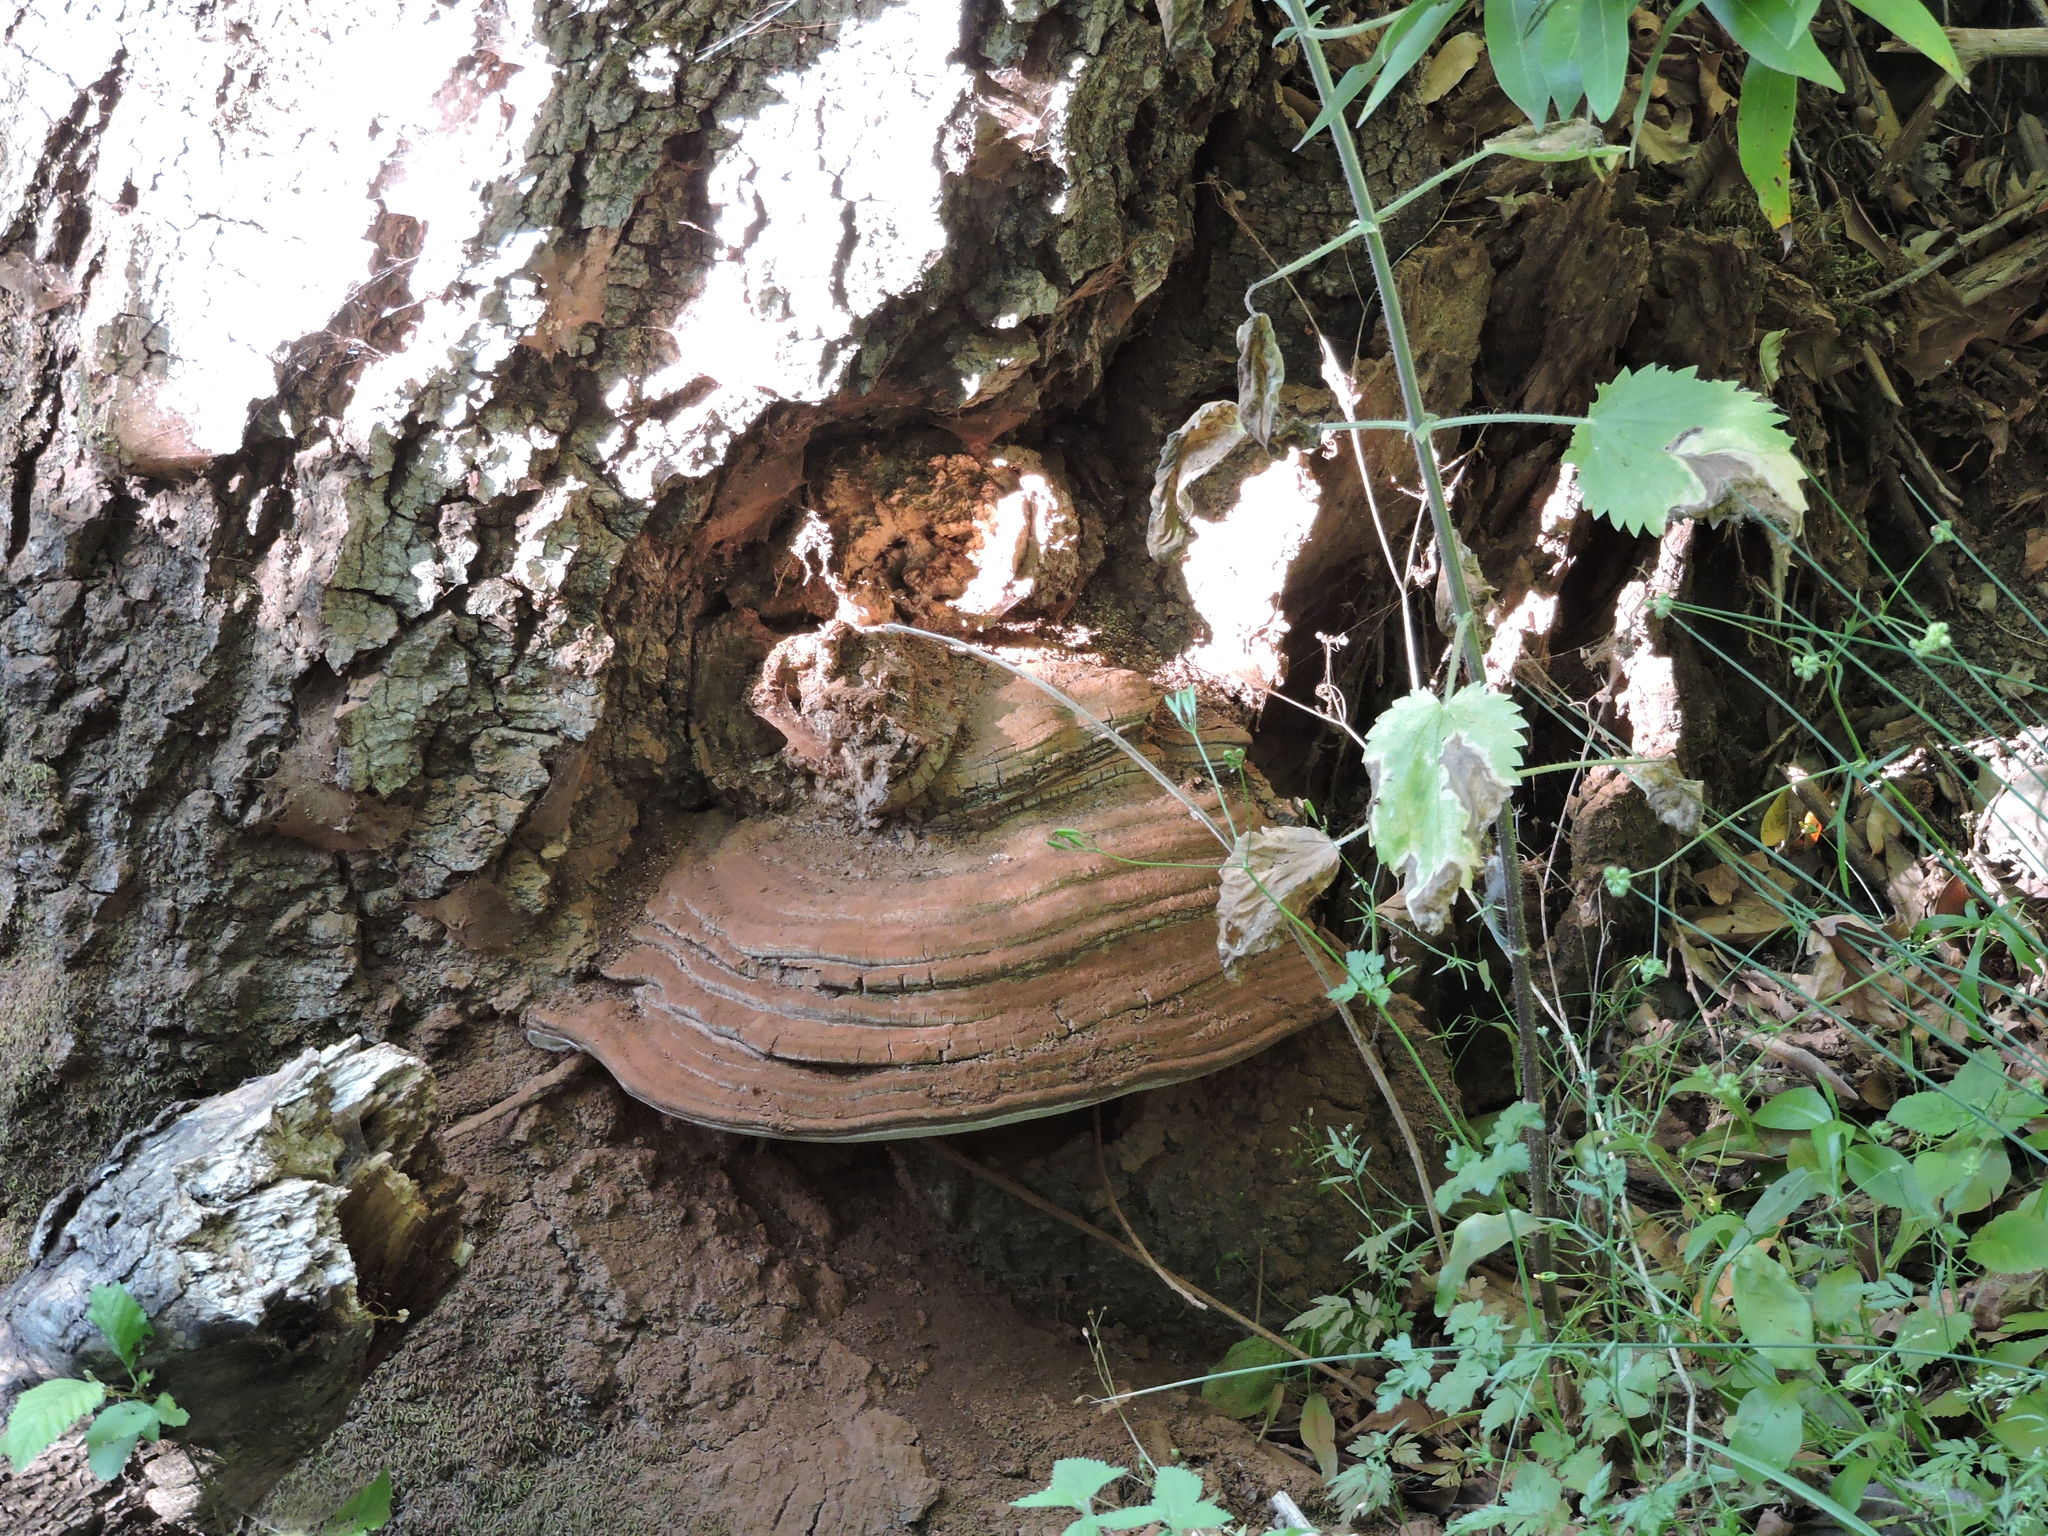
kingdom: Fungi
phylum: Basidiomycota
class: Agaricomycetes
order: Polyporales
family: Polyporaceae
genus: Ganoderma
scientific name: Ganoderma brownii
